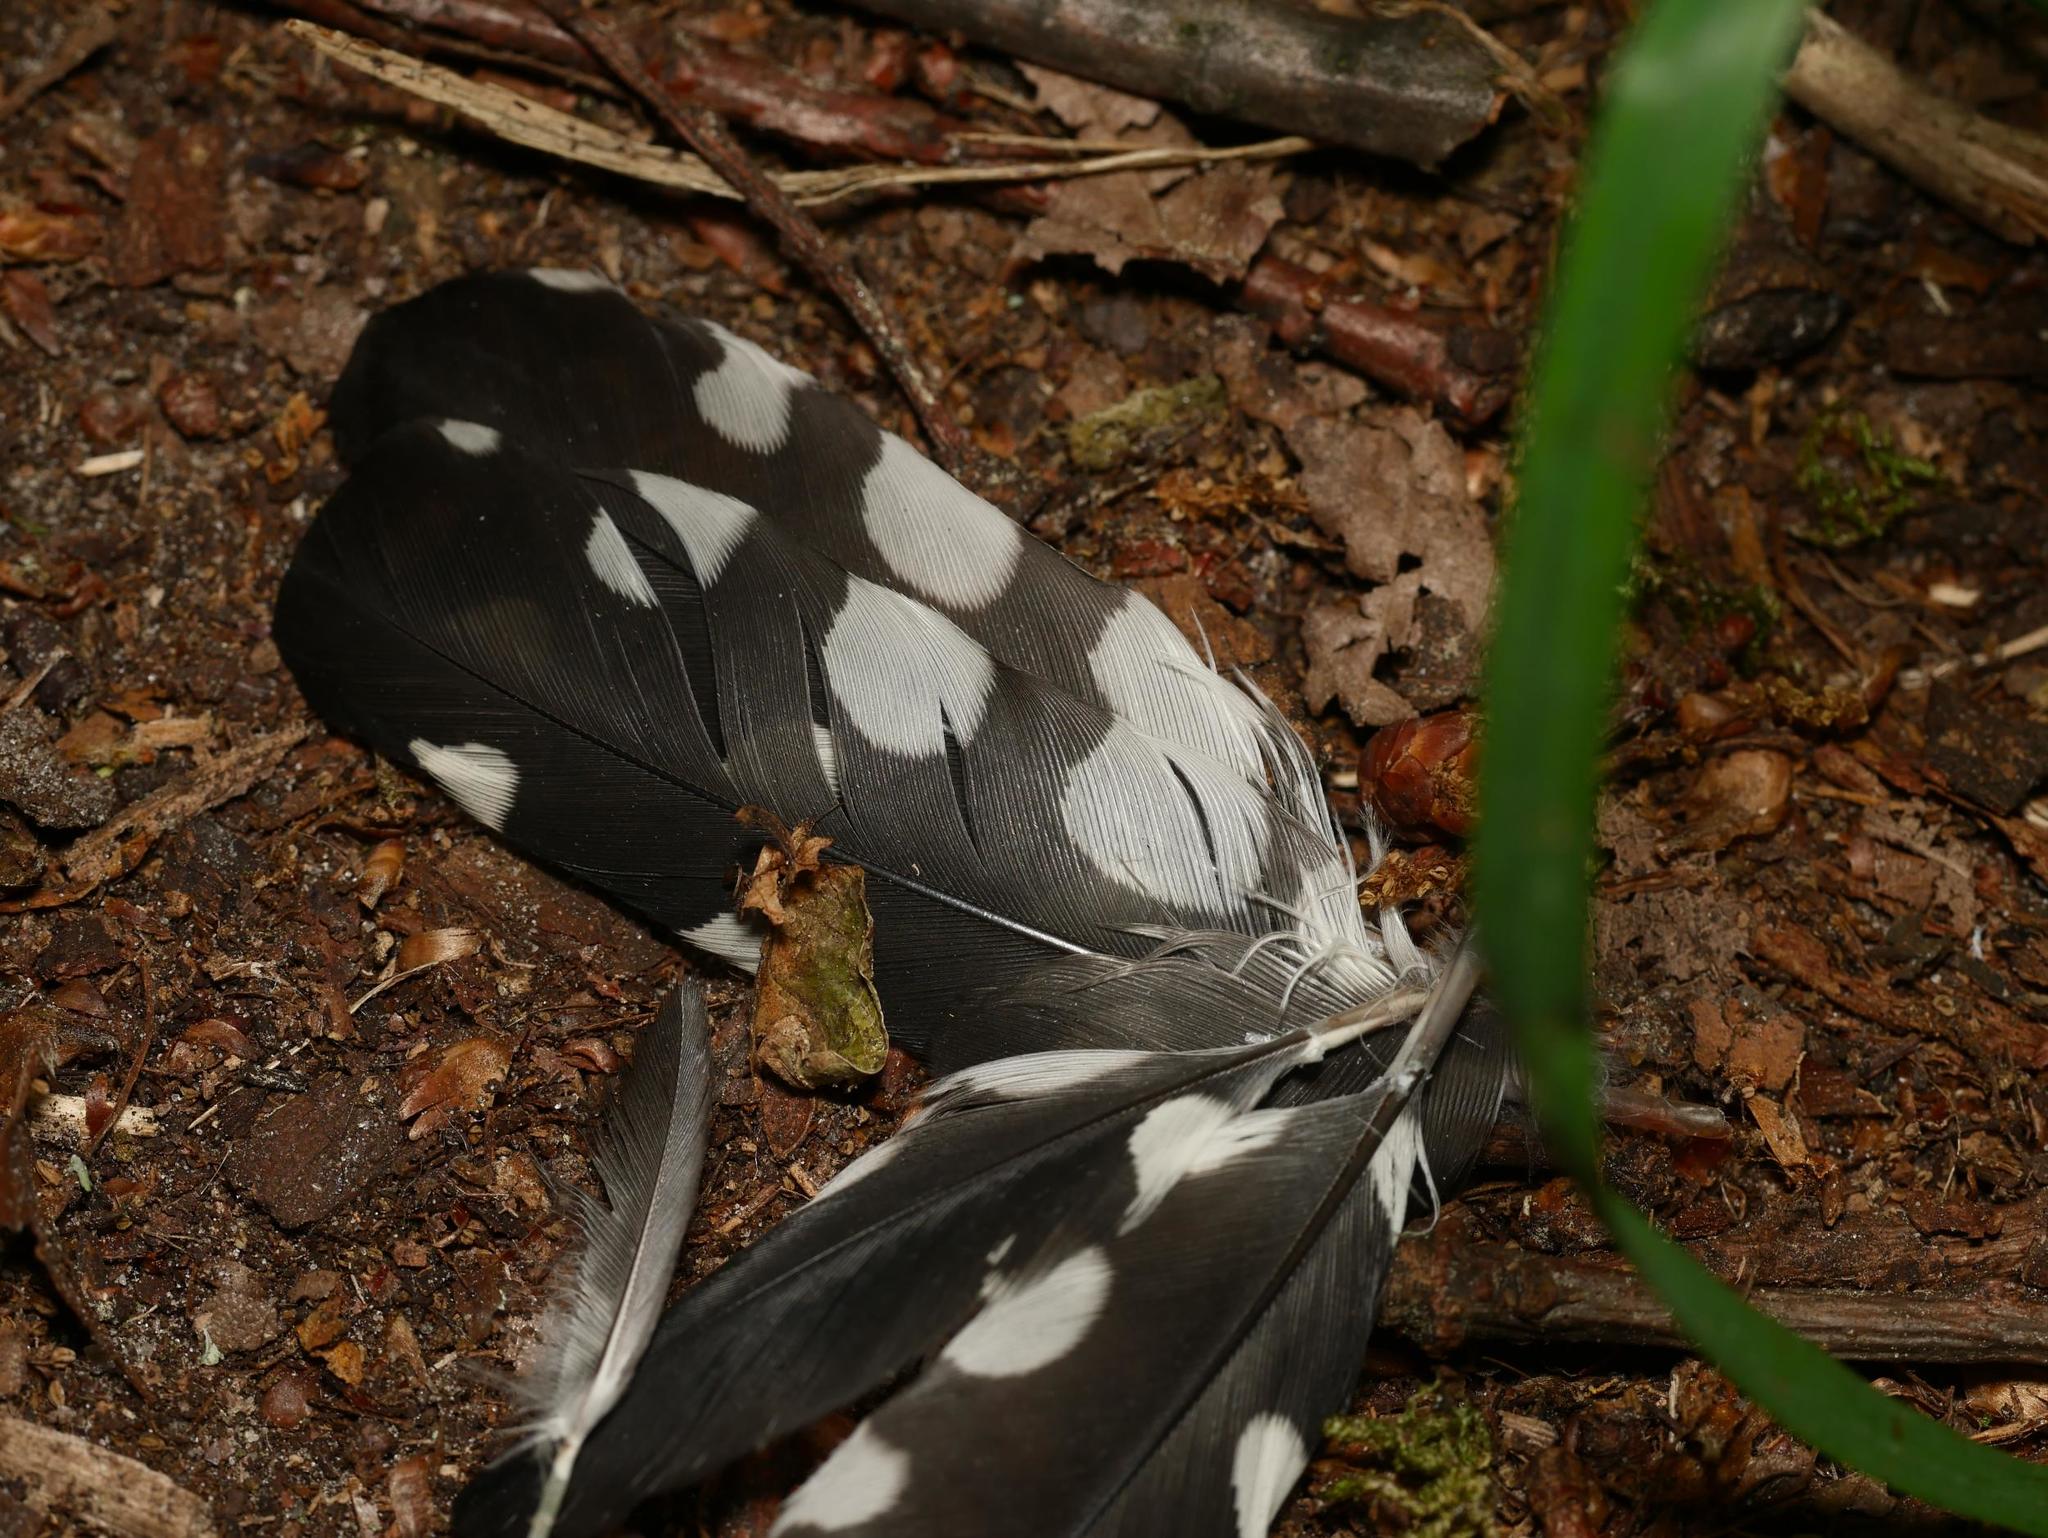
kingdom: Animalia
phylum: Chordata
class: Aves
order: Piciformes
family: Picidae
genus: Dendrocopos
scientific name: Dendrocopos major
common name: Great spotted woodpecker
